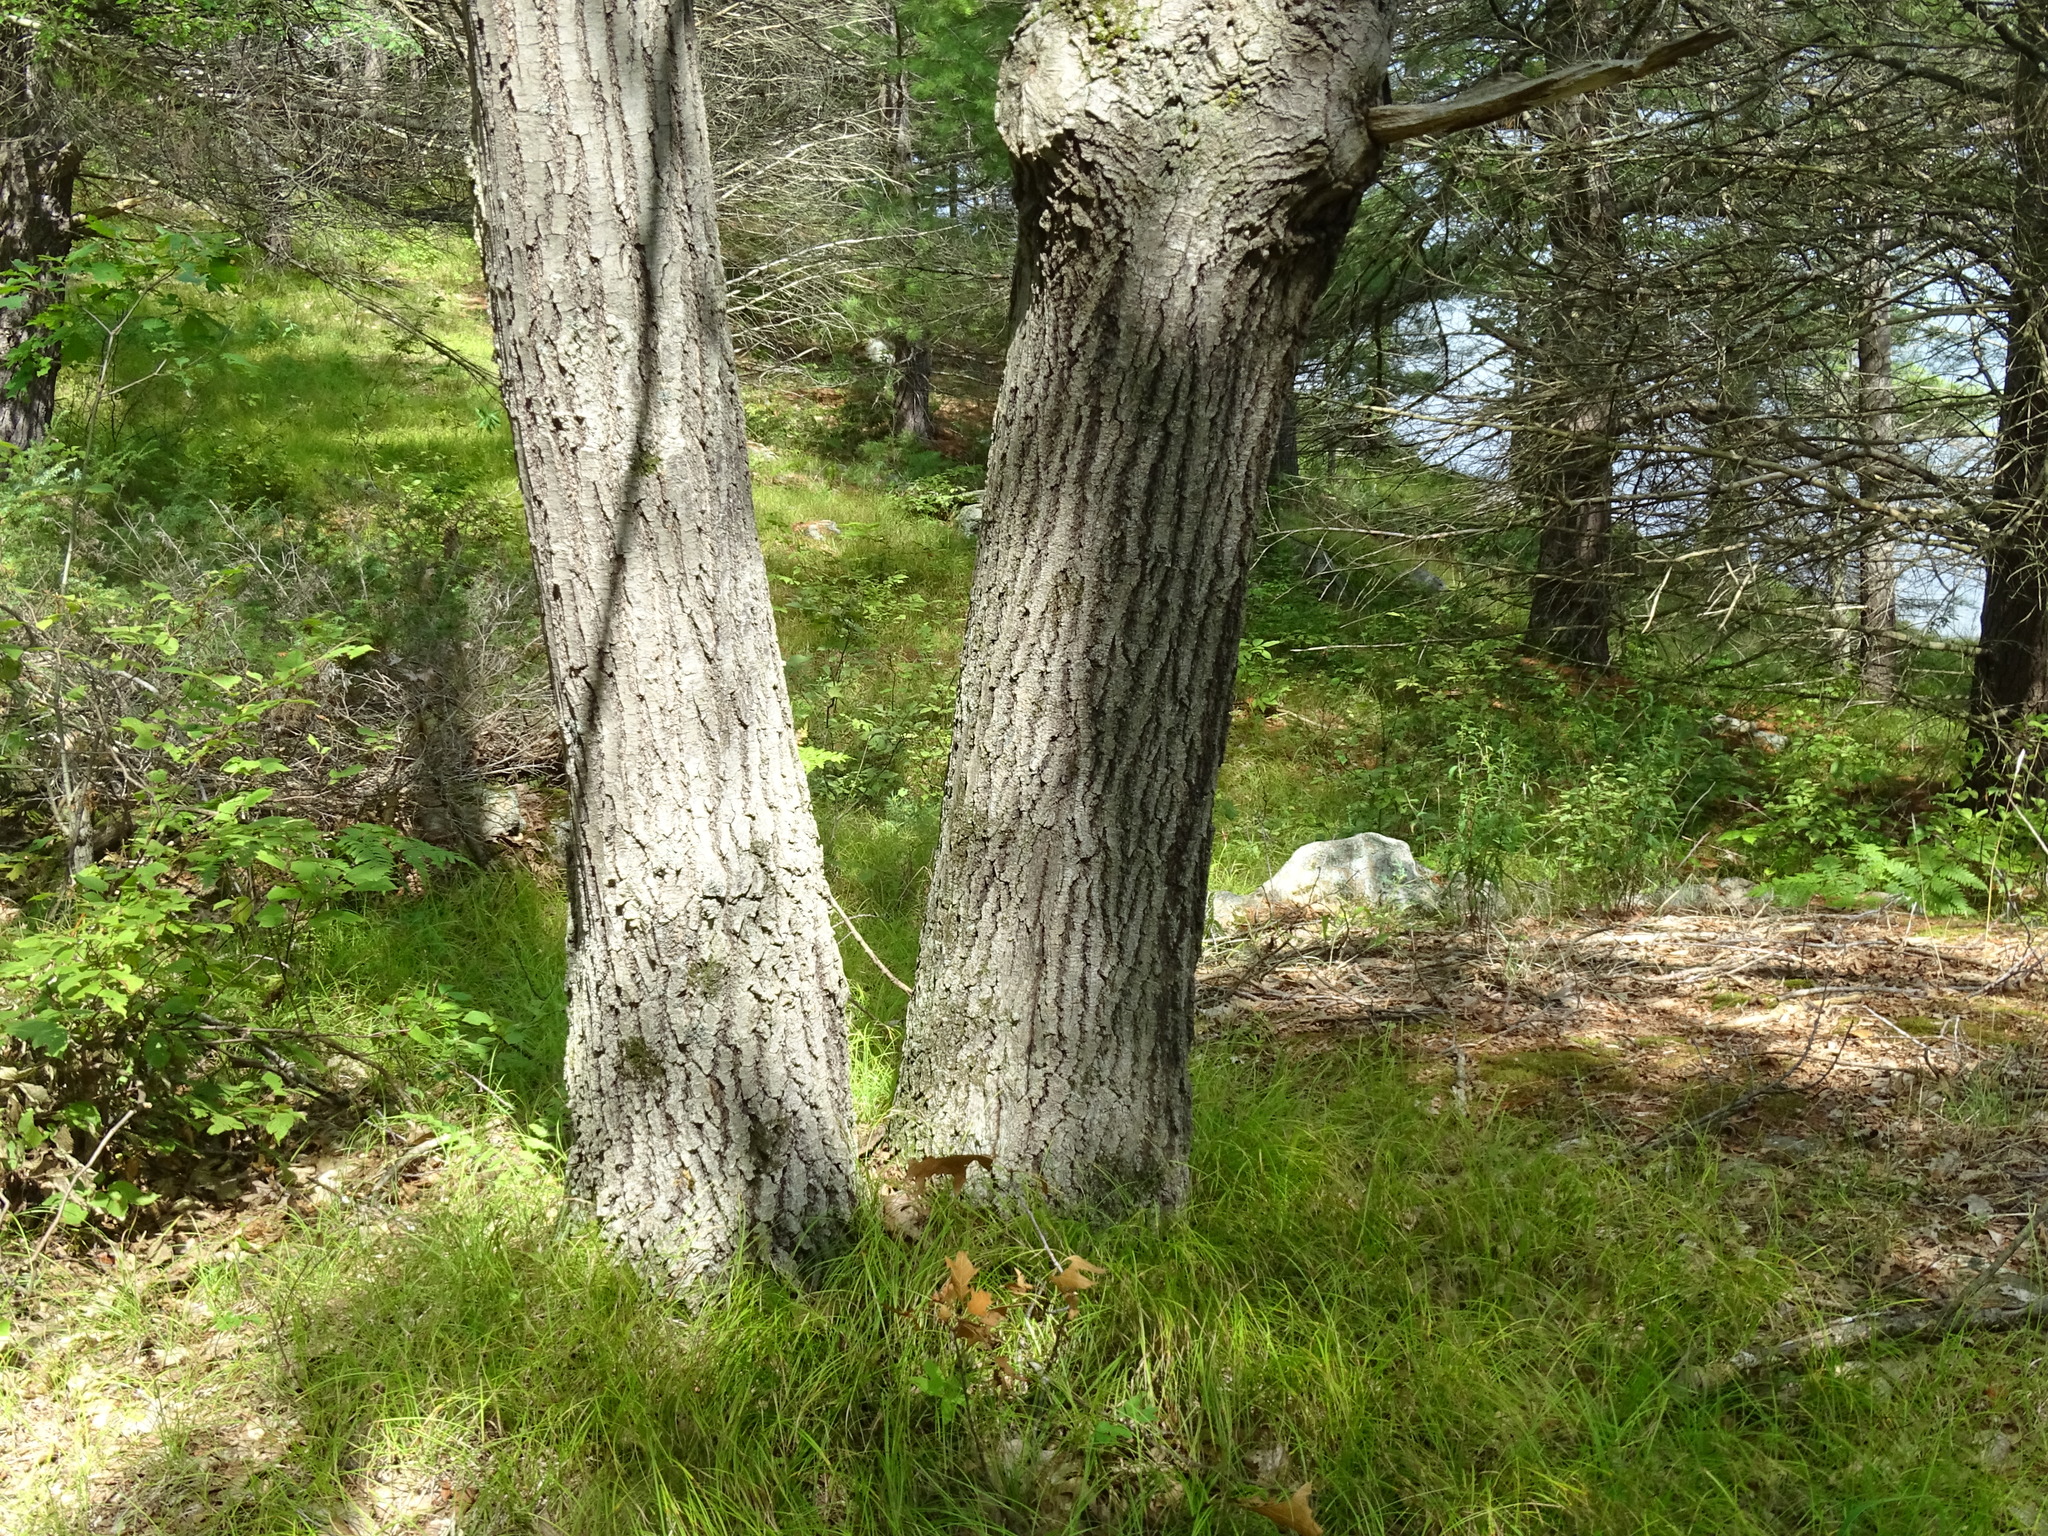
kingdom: Plantae
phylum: Tracheophyta
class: Magnoliopsida
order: Fagales
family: Fagaceae
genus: Quercus
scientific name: Quercus rubra
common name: Red oak
